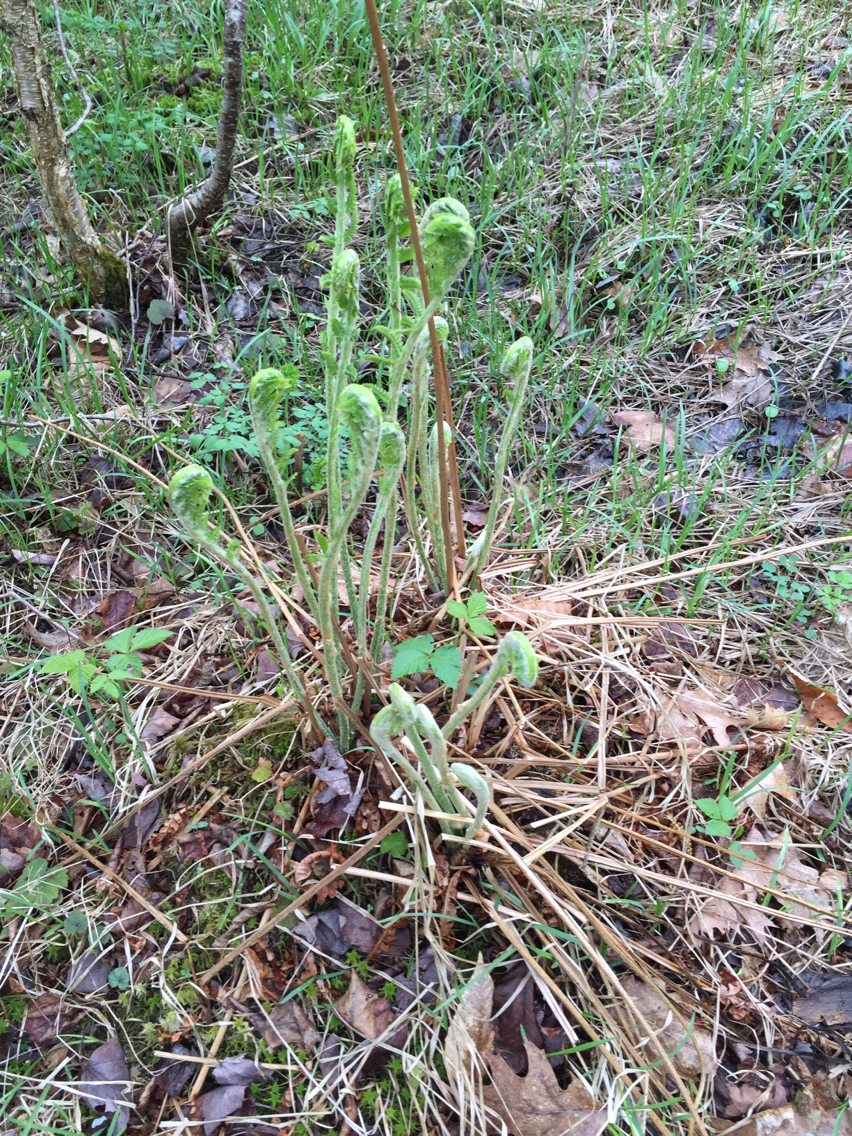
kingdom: Plantae
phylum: Tracheophyta
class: Polypodiopsida
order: Osmundales
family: Osmundaceae
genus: Osmundastrum
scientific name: Osmundastrum cinnamomeum
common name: Cinnamon fern
